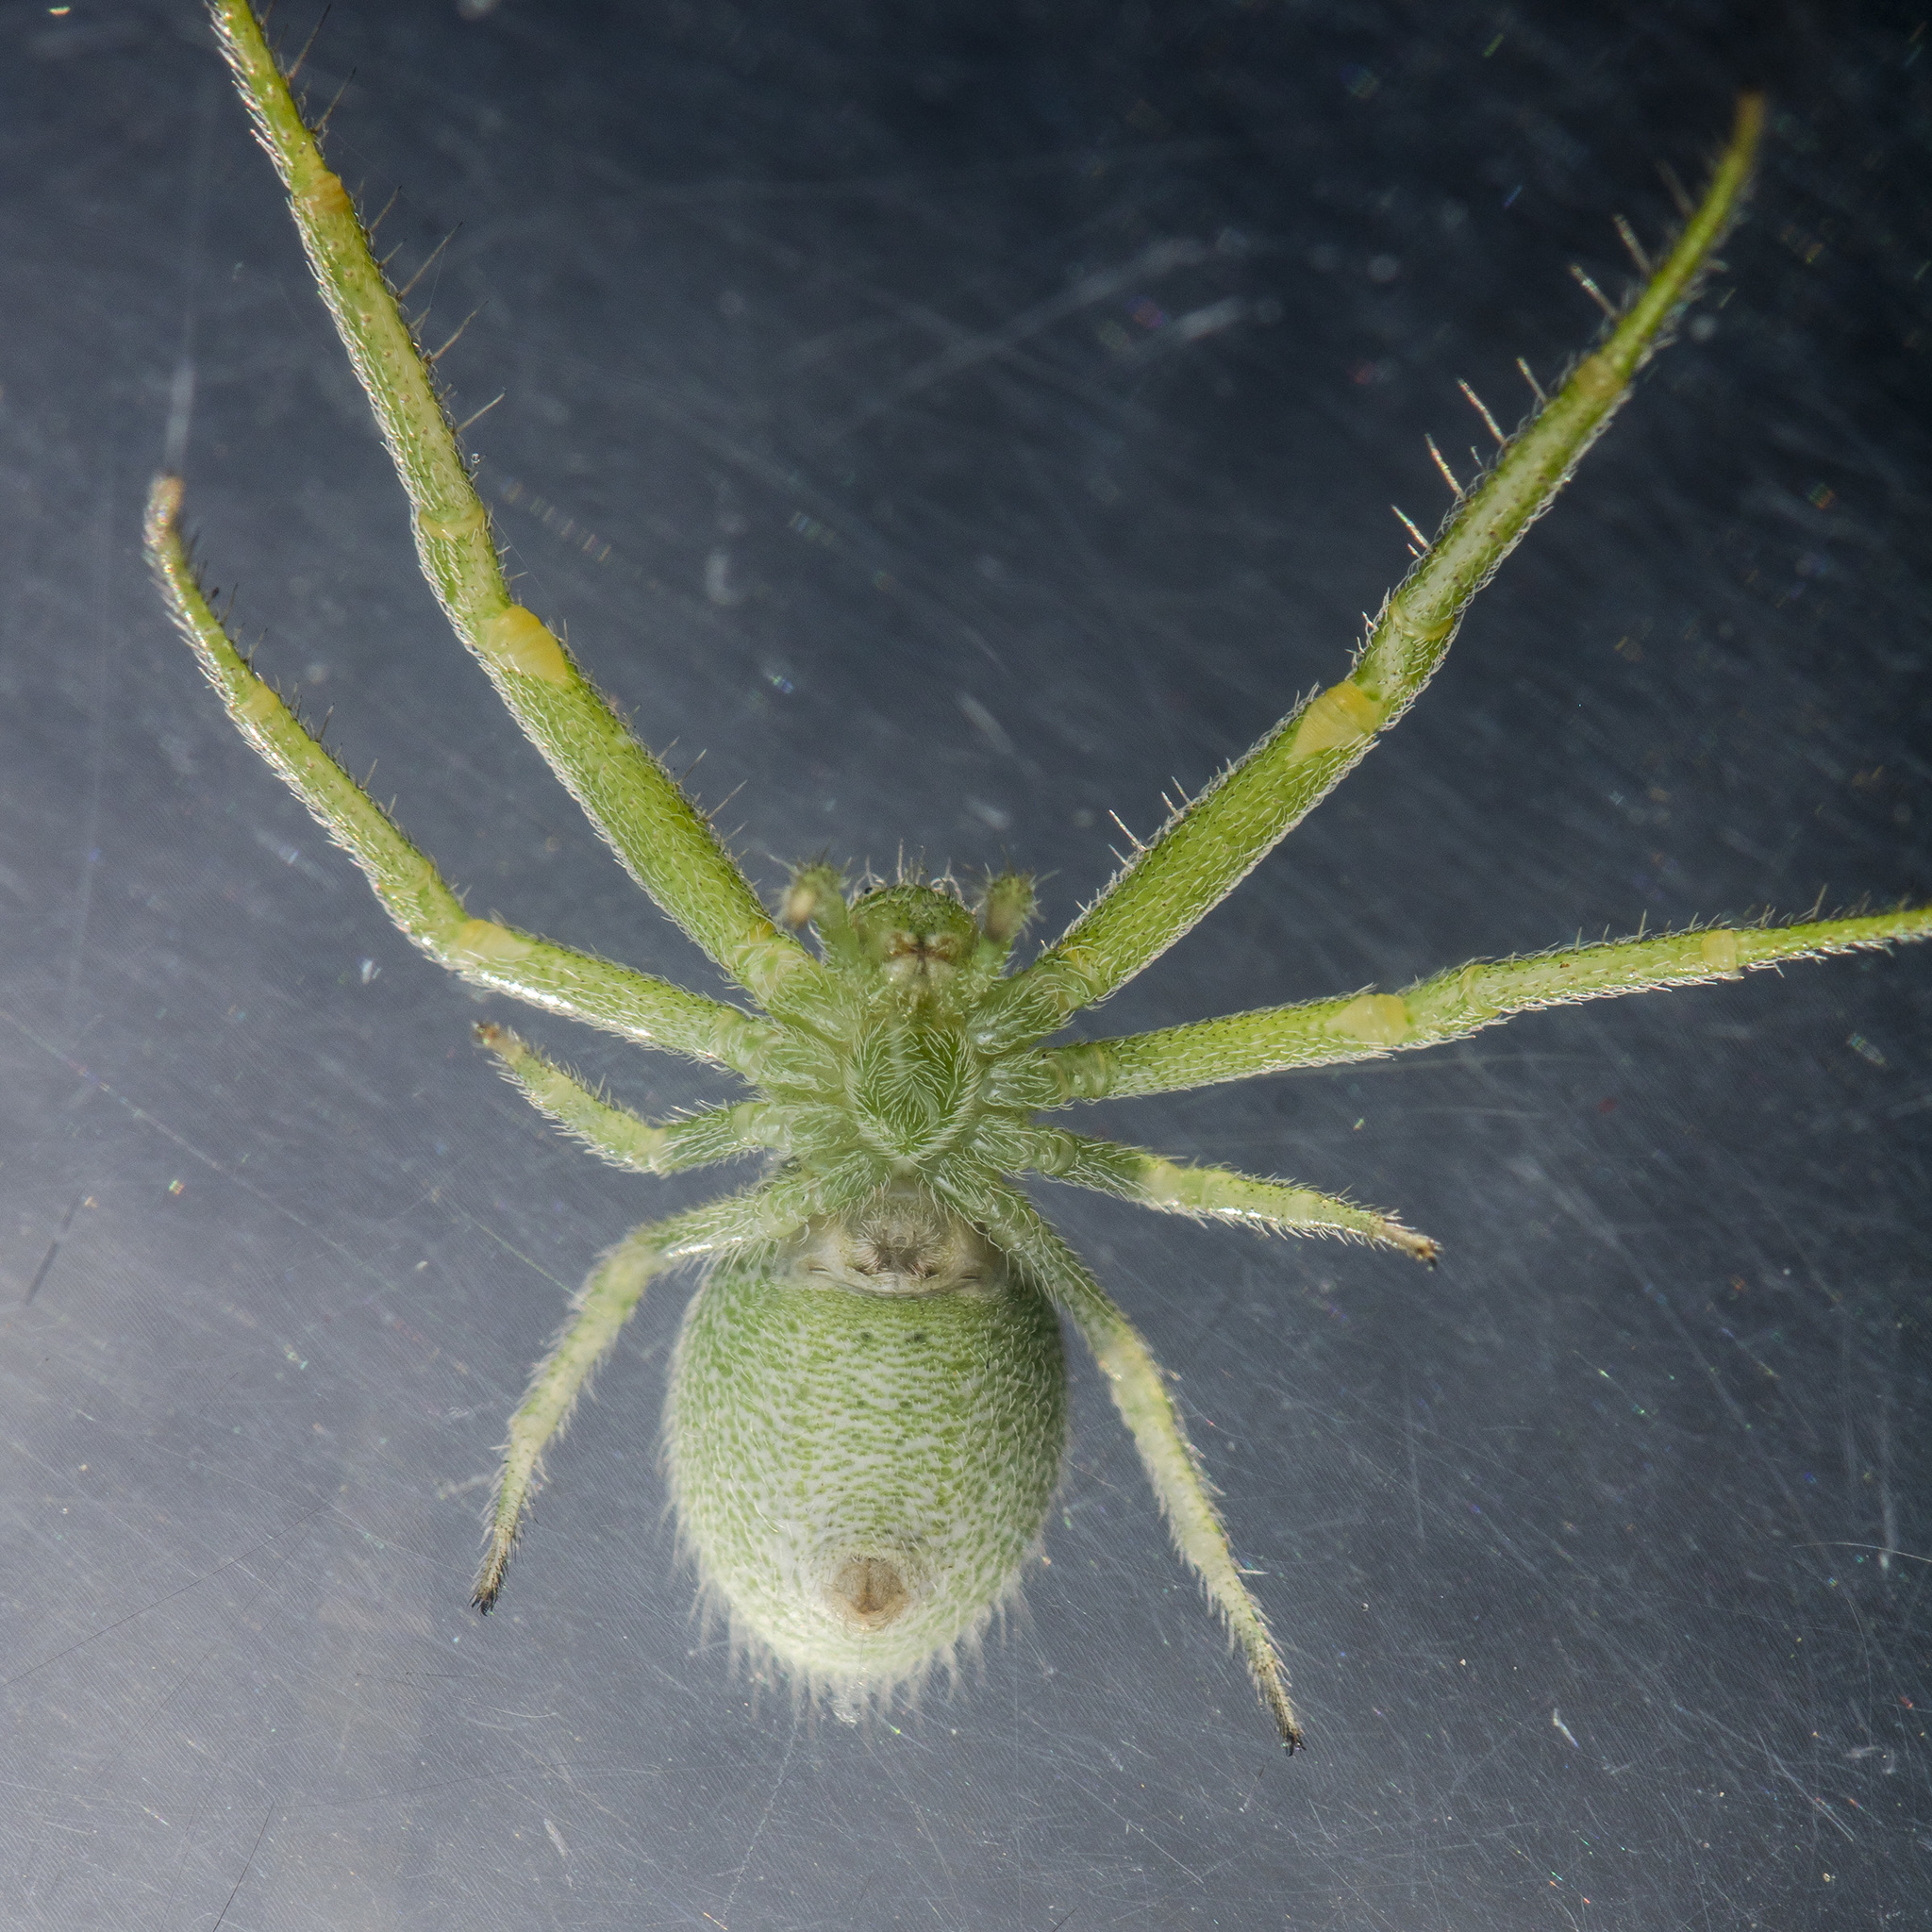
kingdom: Animalia
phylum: Arthropoda
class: Arachnida
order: Araneae
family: Thomisidae
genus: Heriaeus
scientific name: Heriaeus oblongus
